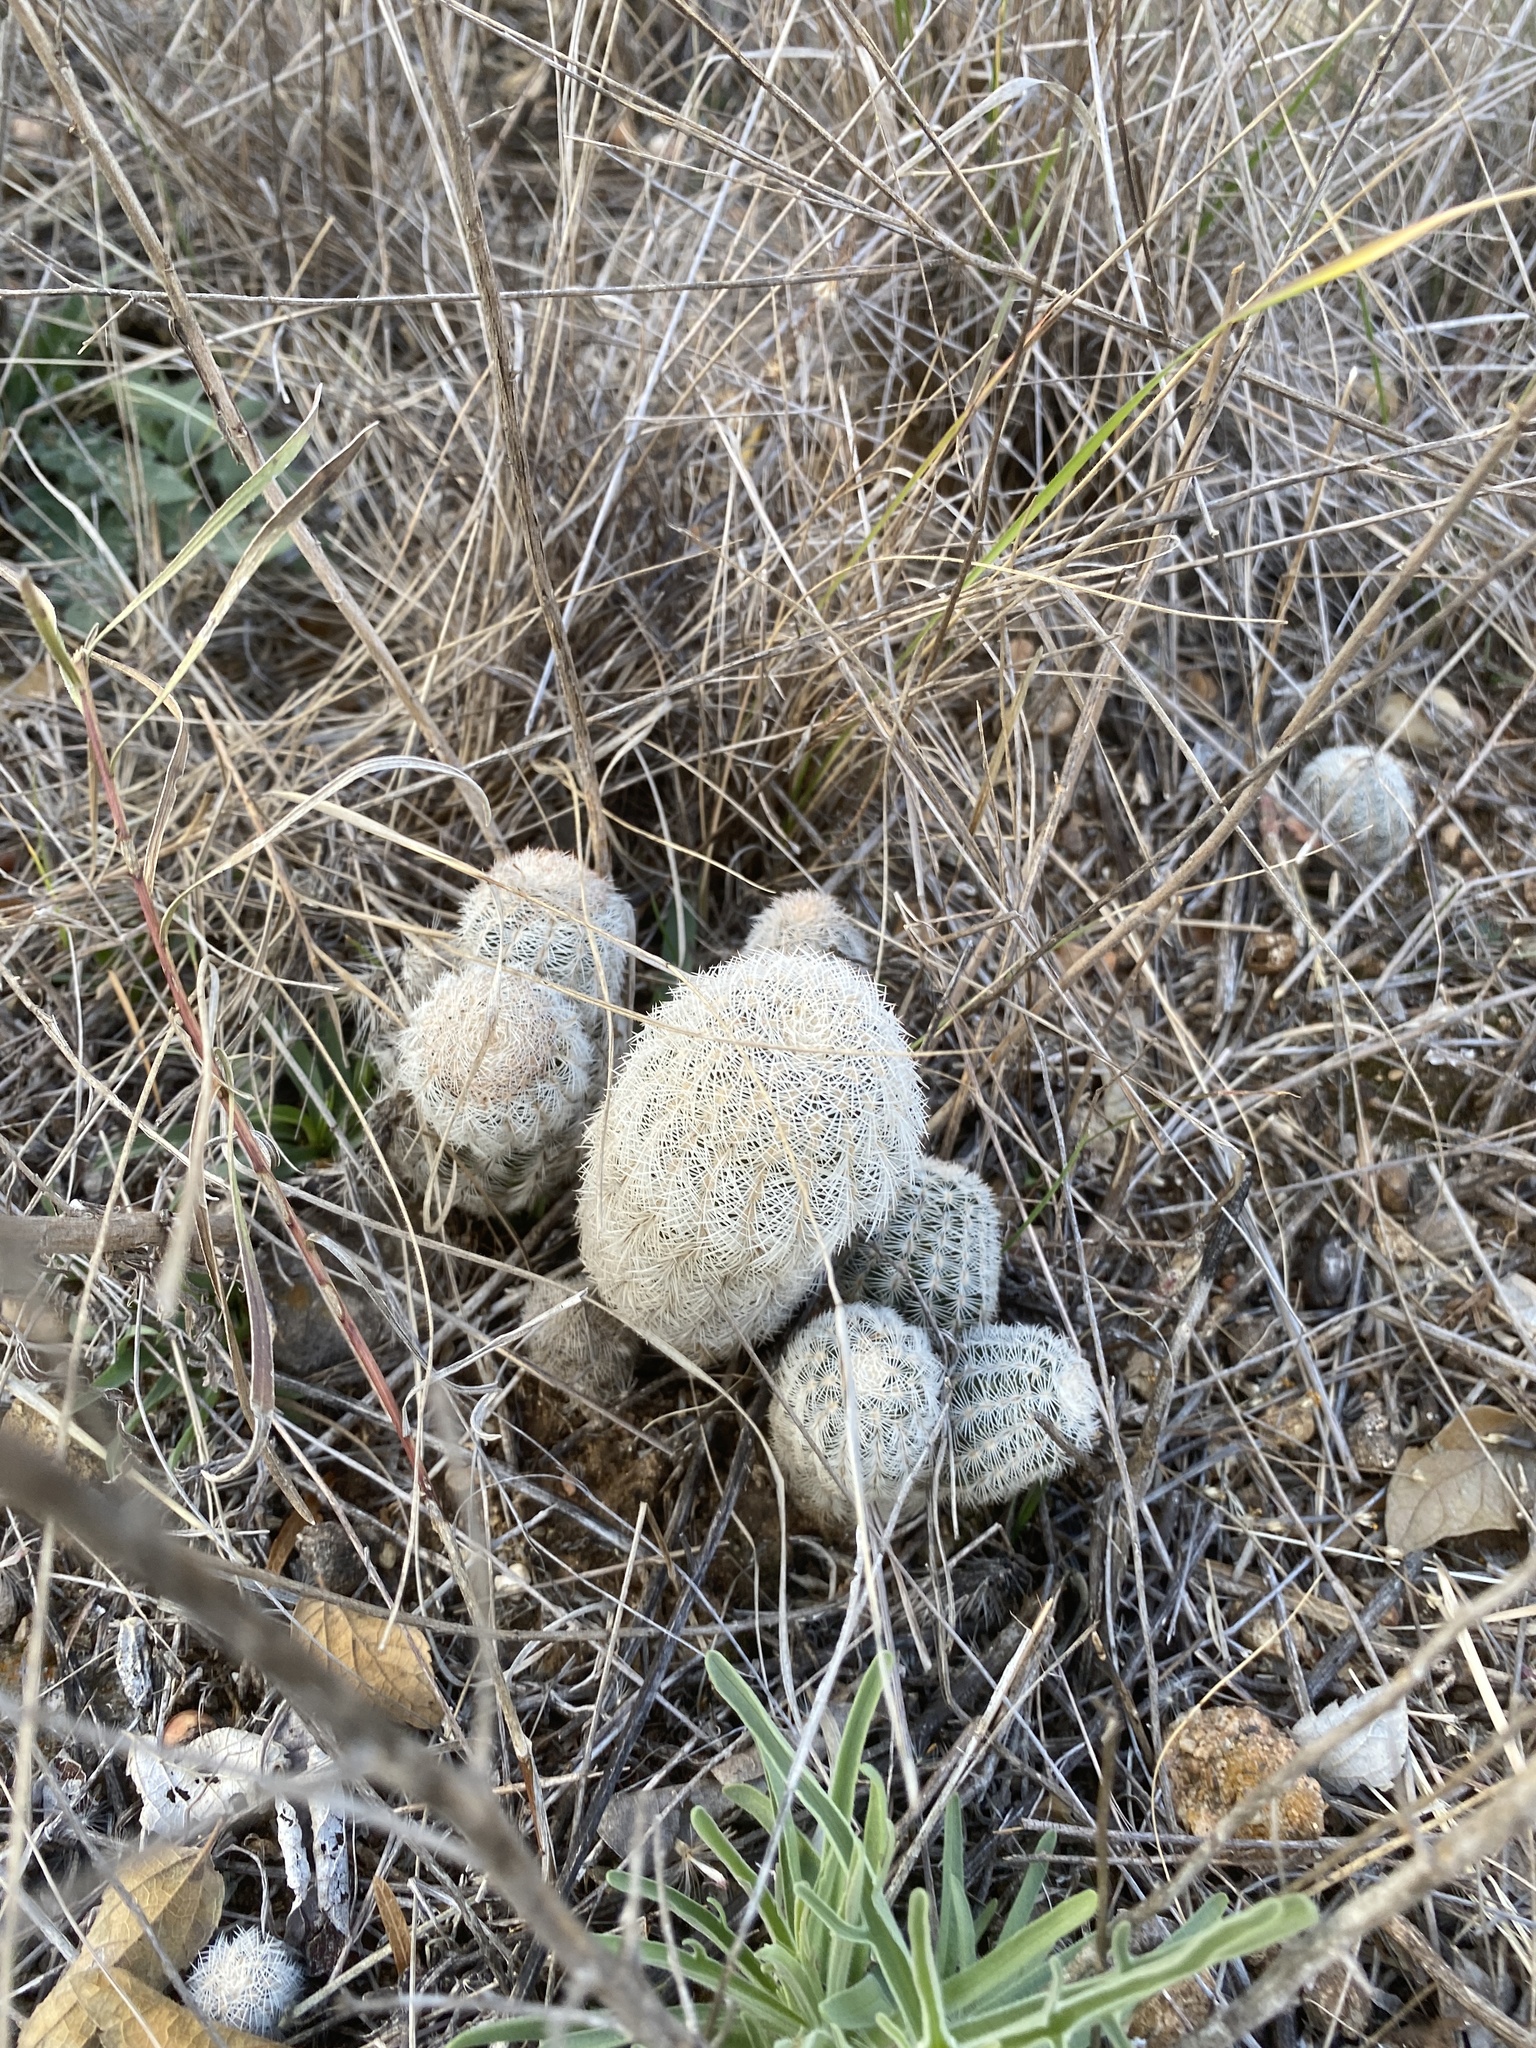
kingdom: Plantae
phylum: Tracheophyta
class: Magnoliopsida
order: Caryophyllales
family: Cactaceae
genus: Echinocereus
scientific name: Echinocereus reichenbachii
